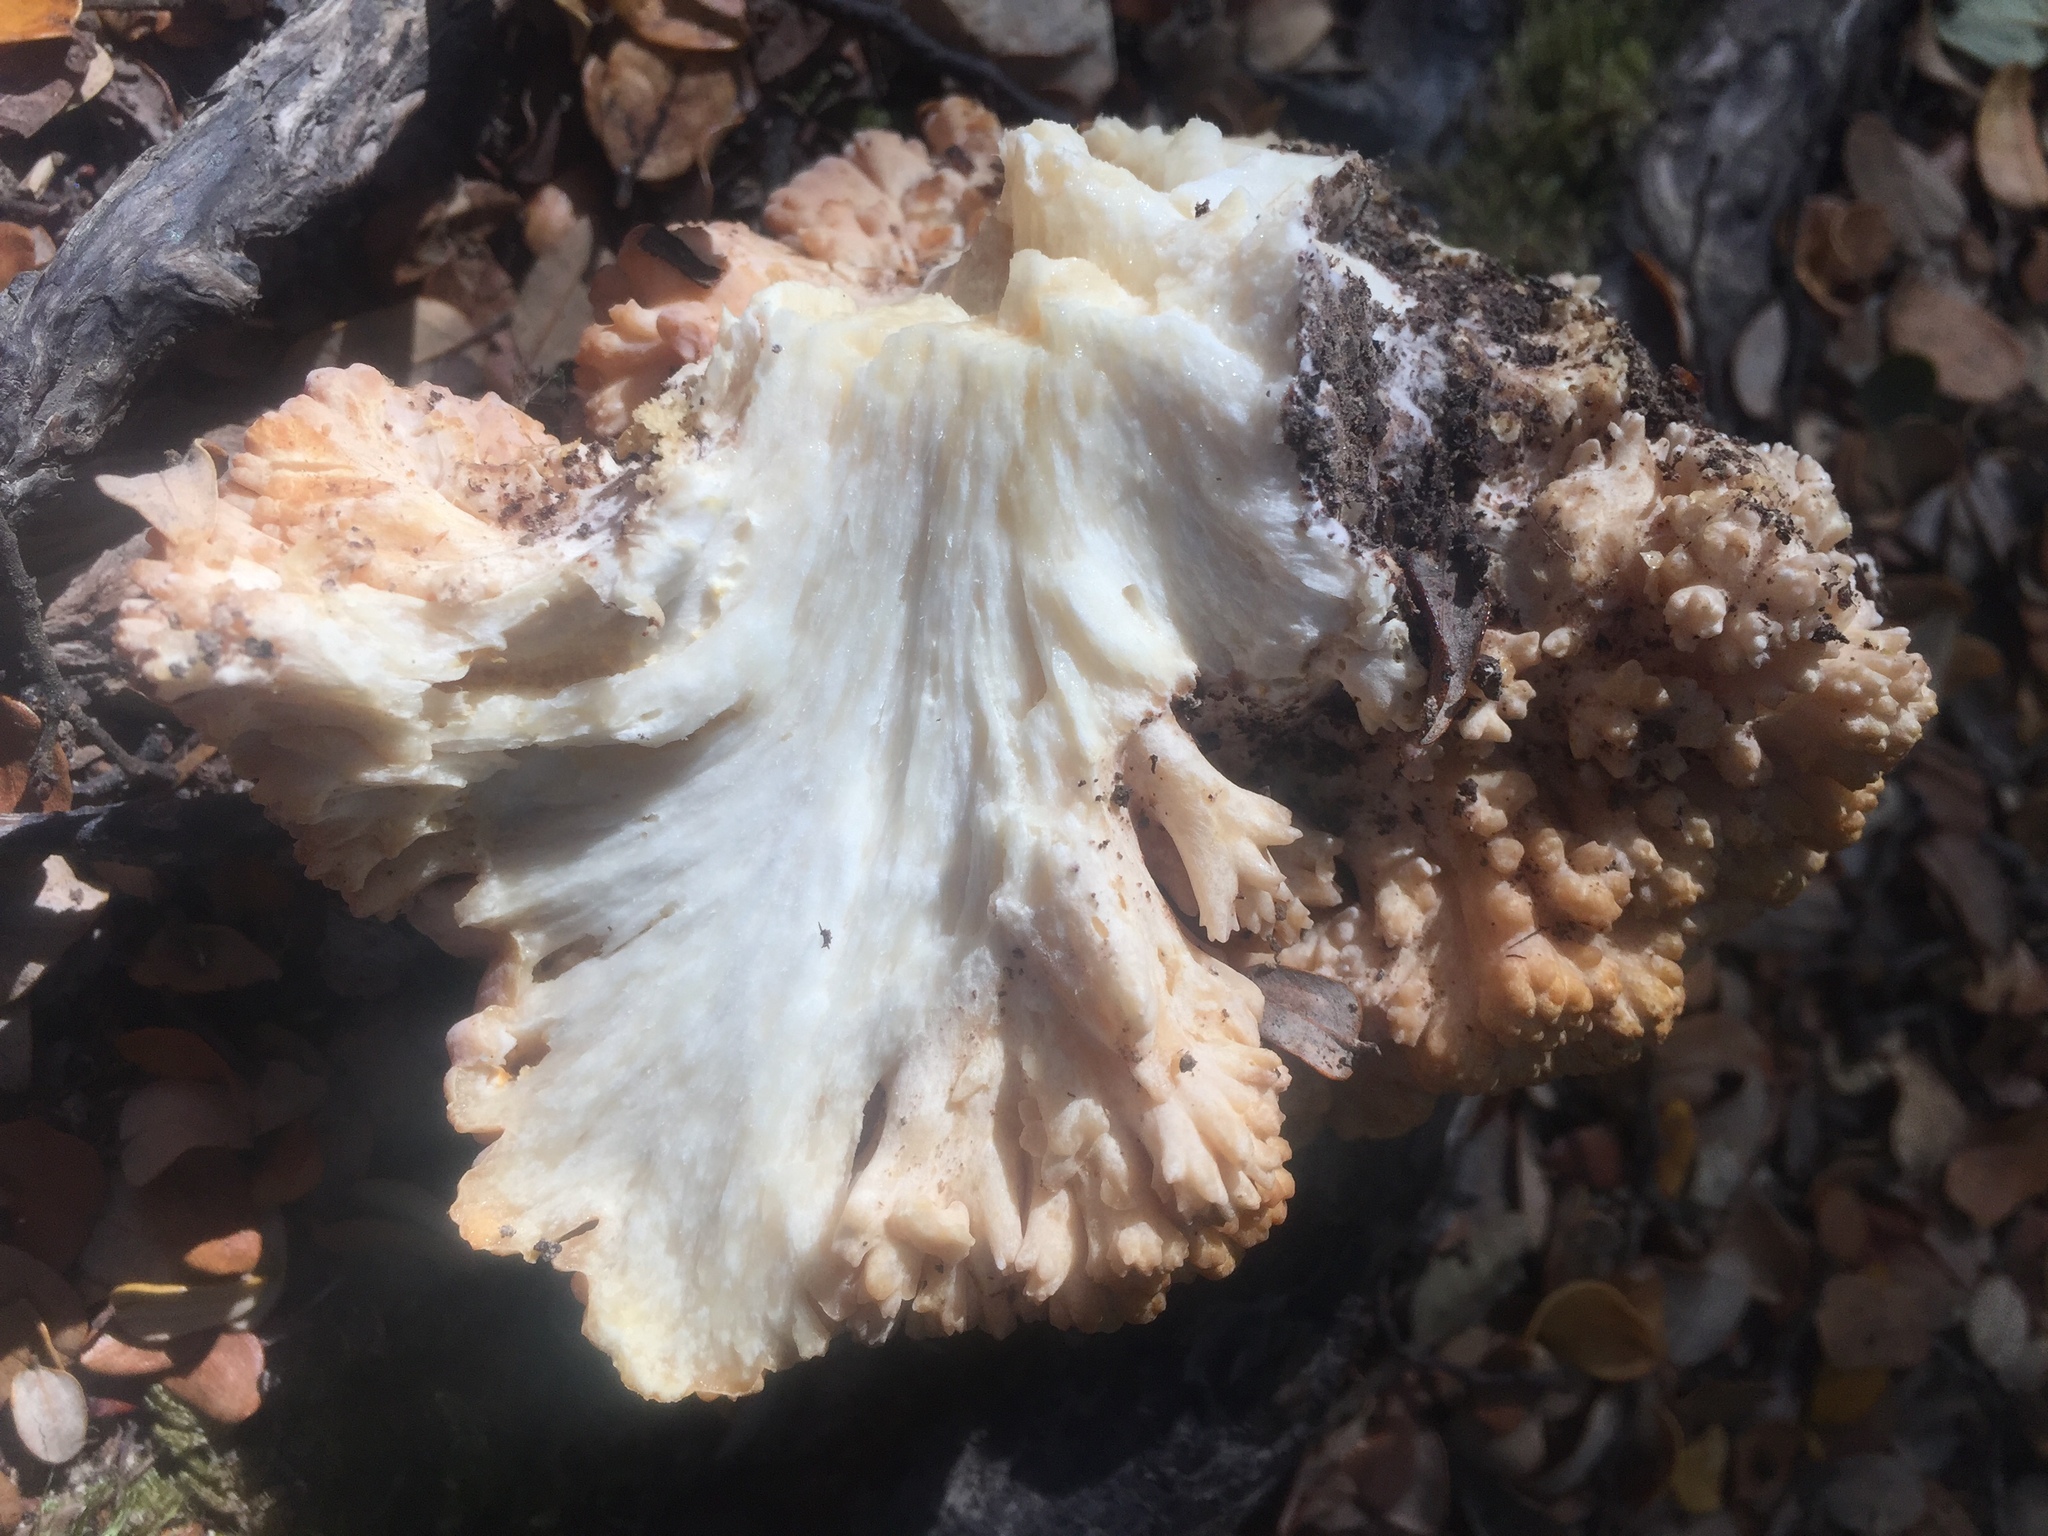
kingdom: Fungi
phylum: Basidiomycota
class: Agaricomycetes
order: Gomphales
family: Gomphaceae
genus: Ramaria
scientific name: Ramaria basirobusta
